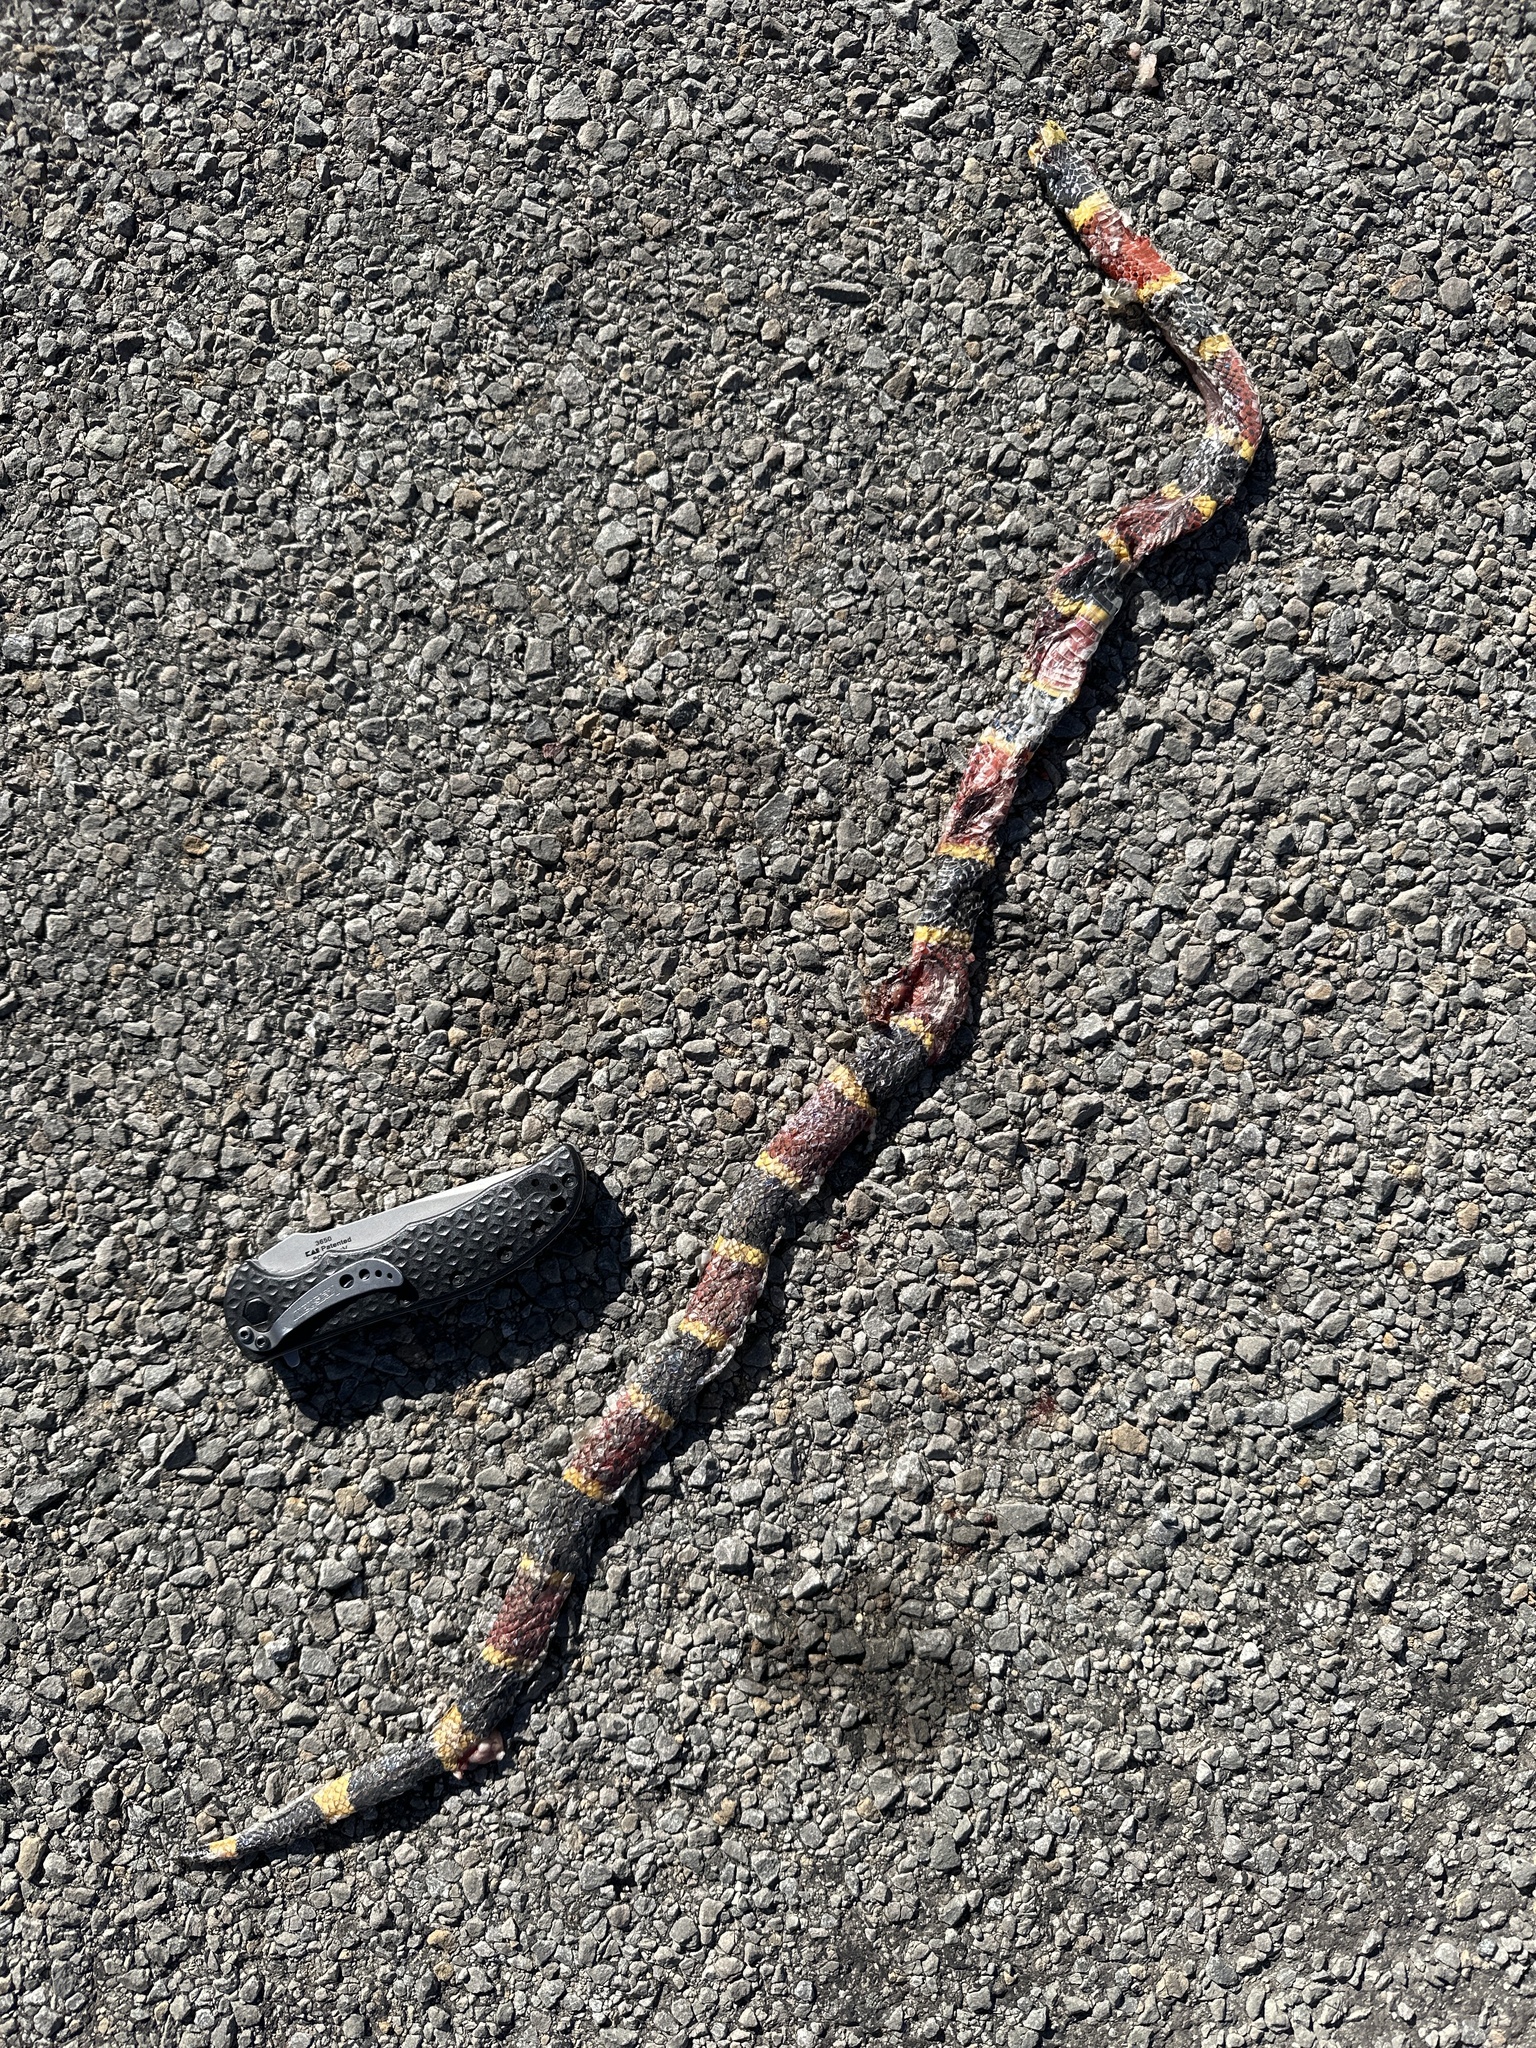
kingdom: Animalia
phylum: Chordata
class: Squamata
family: Elapidae
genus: Micrurus
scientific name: Micrurus tener
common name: Texas coral snake
